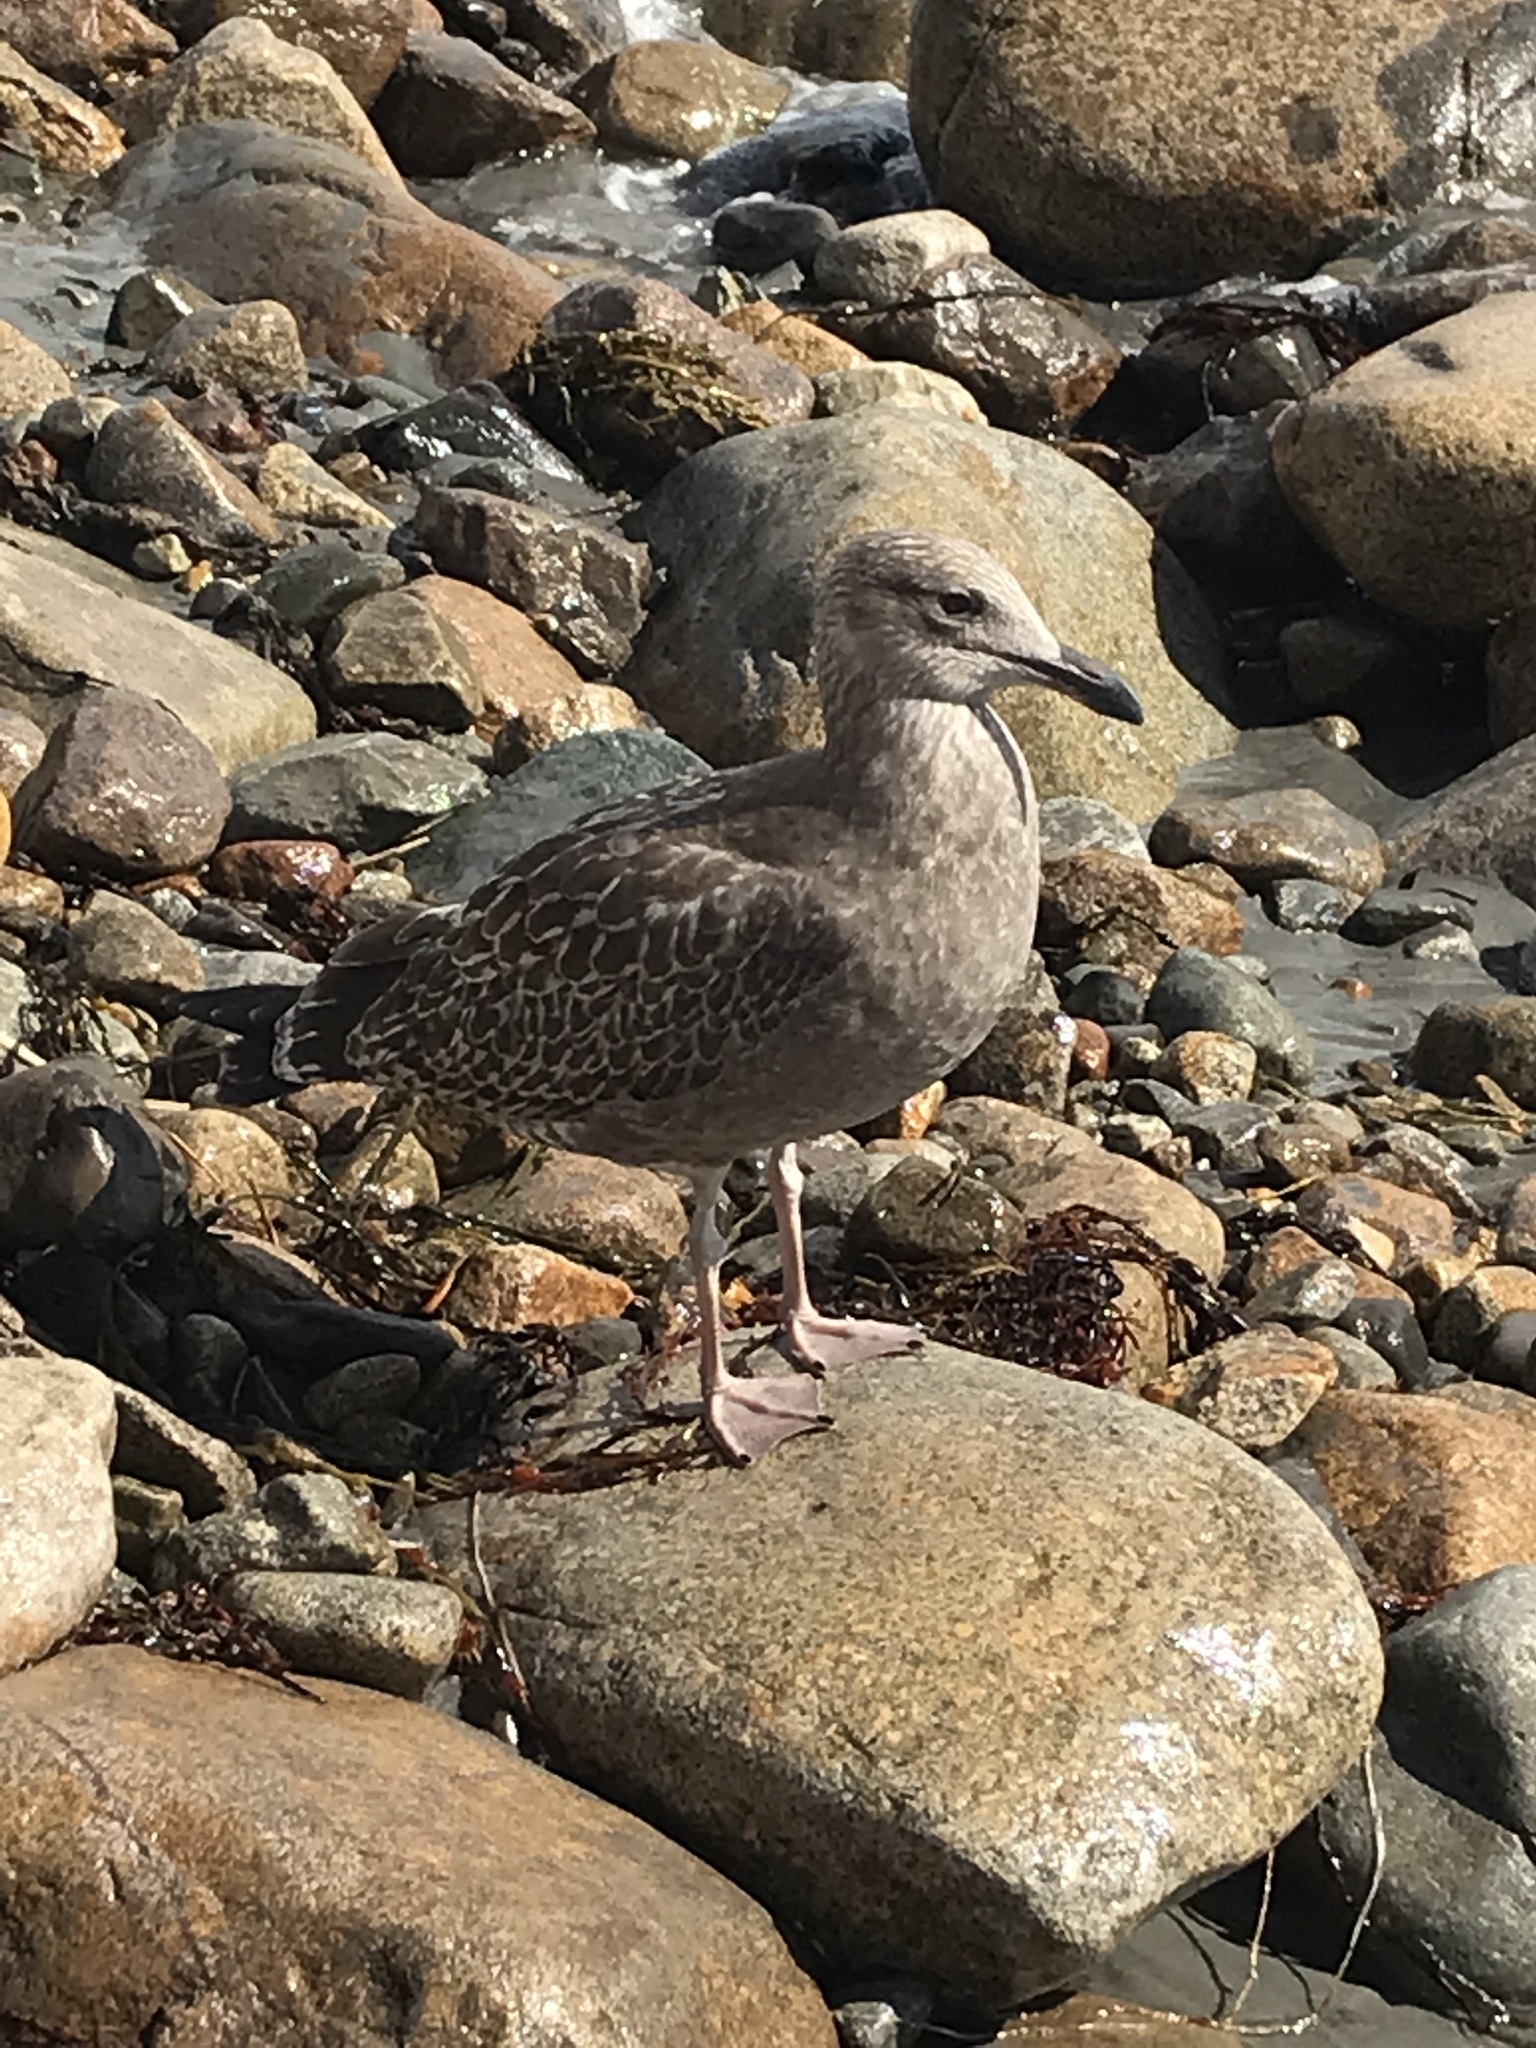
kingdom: Animalia
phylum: Chordata
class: Aves
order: Charadriiformes
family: Laridae
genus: Larus
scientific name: Larus argentatus
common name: Herring gull
